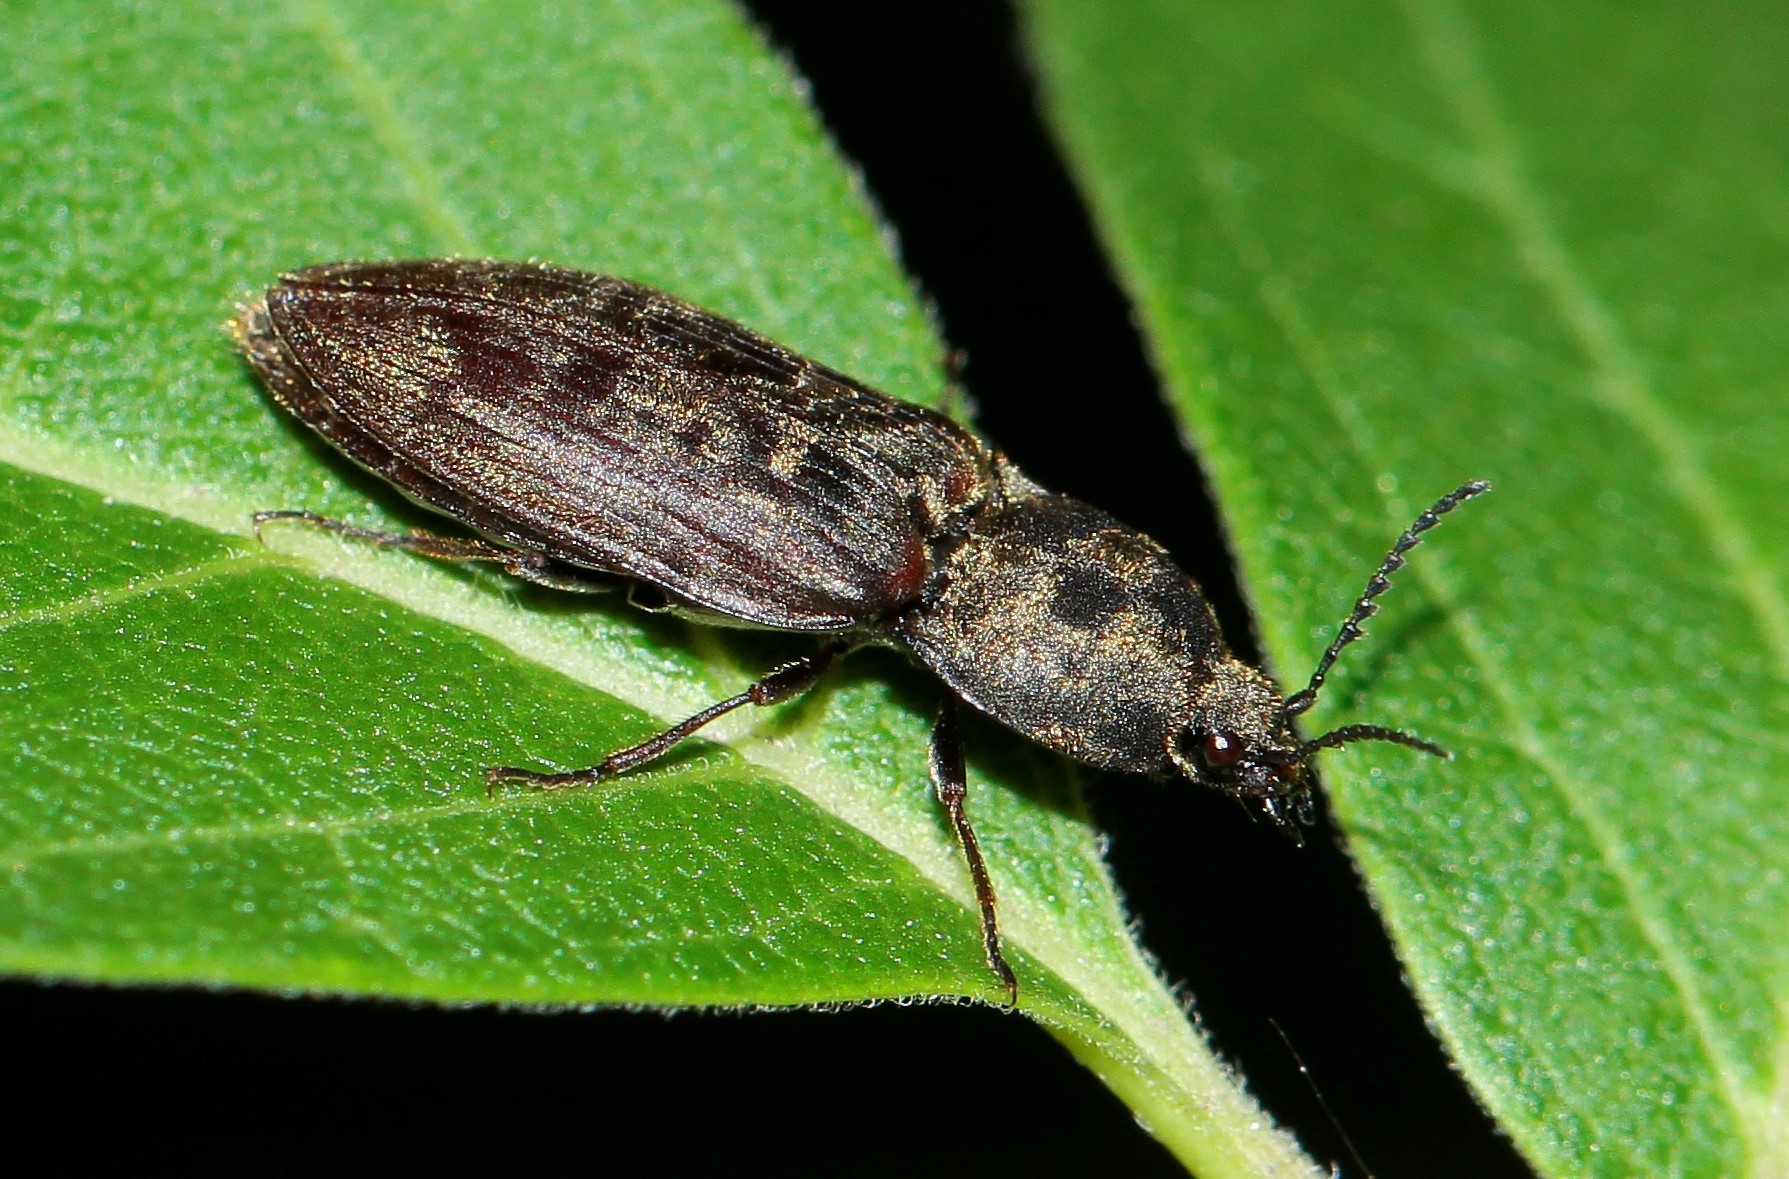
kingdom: Animalia
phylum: Arthropoda
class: Insecta
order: Coleoptera
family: Elateridae
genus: Prosternon
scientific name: Prosternon tessellatum
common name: Chequered click beetle
